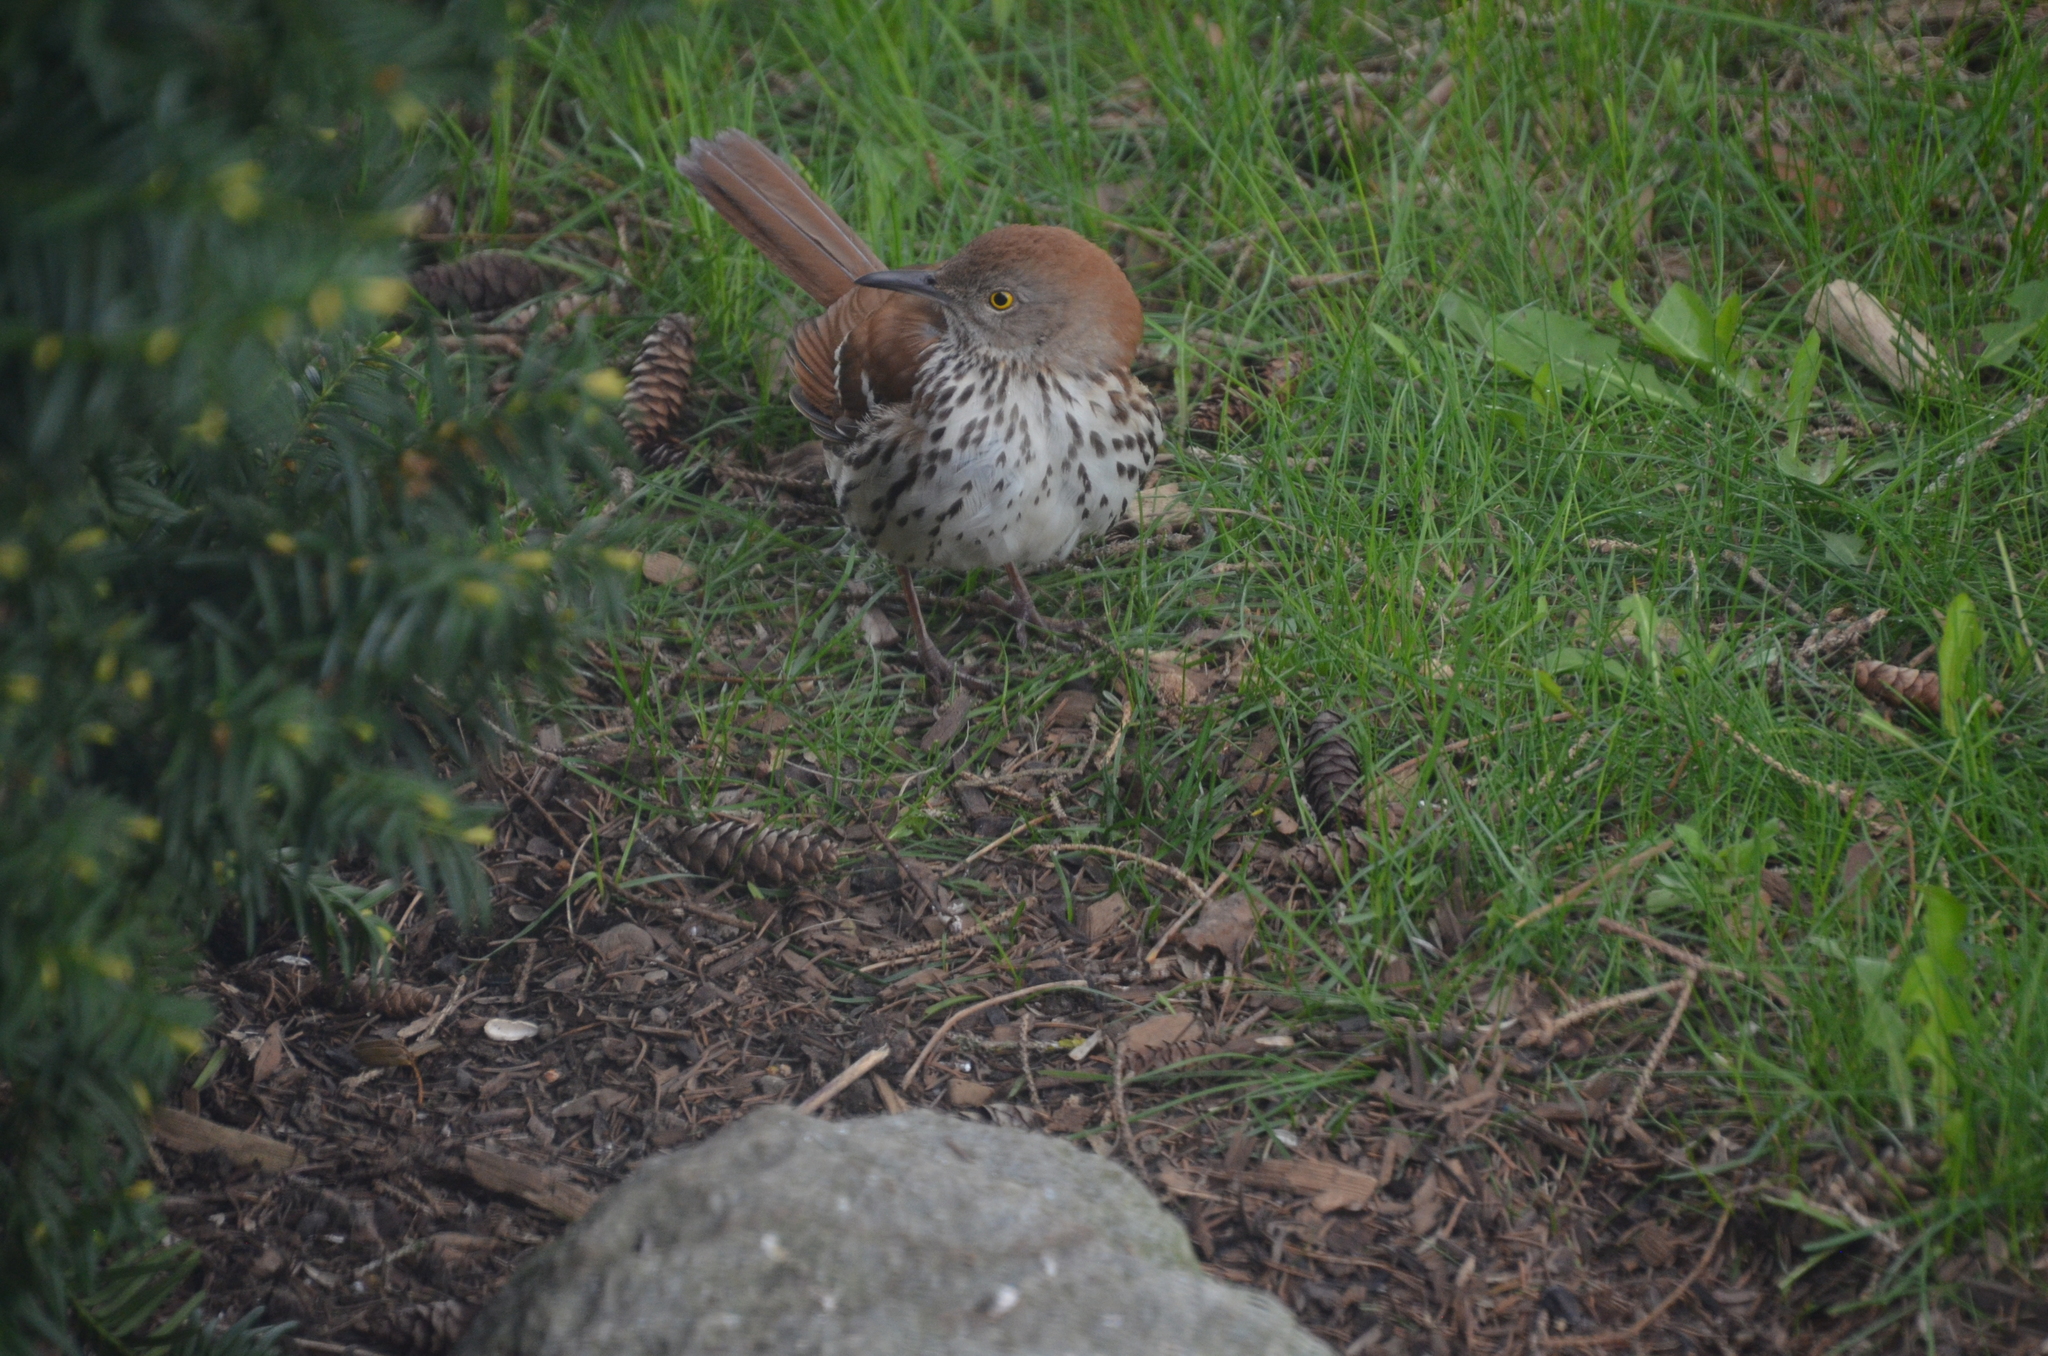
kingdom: Animalia
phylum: Chordata
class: Aves
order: Passeriformes
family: Mimidae
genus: Toxostoma
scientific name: Toxostoma rufum
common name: Brown thrasher
